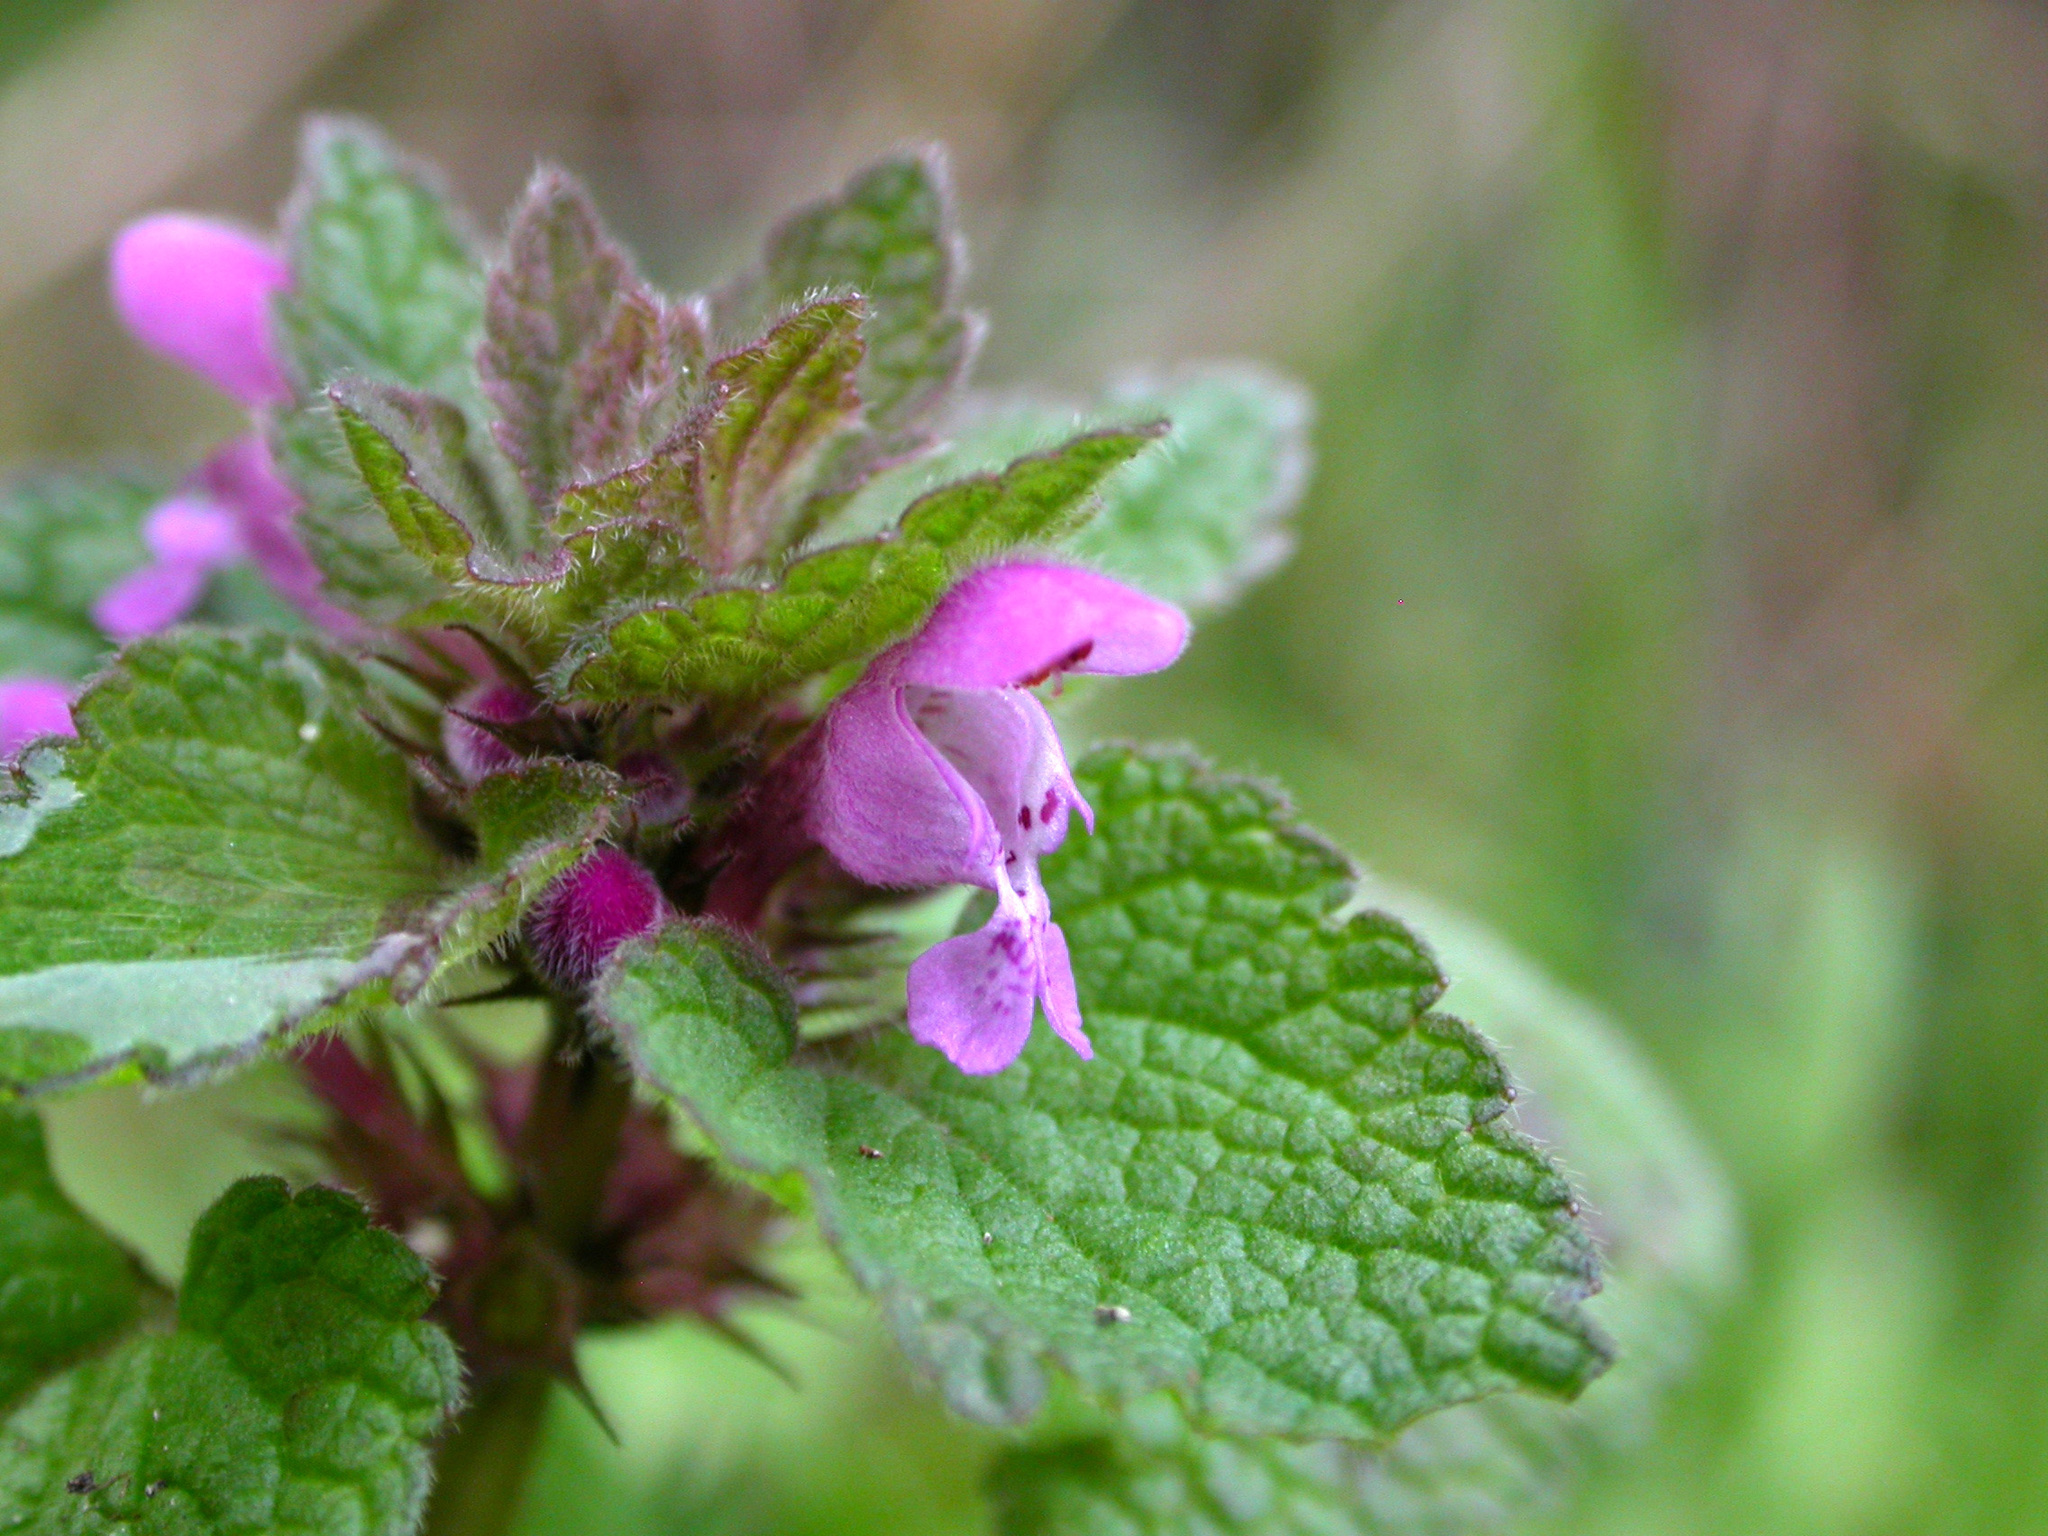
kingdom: Plantae
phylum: Tracheophyta
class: Magnoliopsida
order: Lamiales
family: Lamiaceae
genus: Lamium
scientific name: Lamium purpureum
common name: Red dead-nettle
